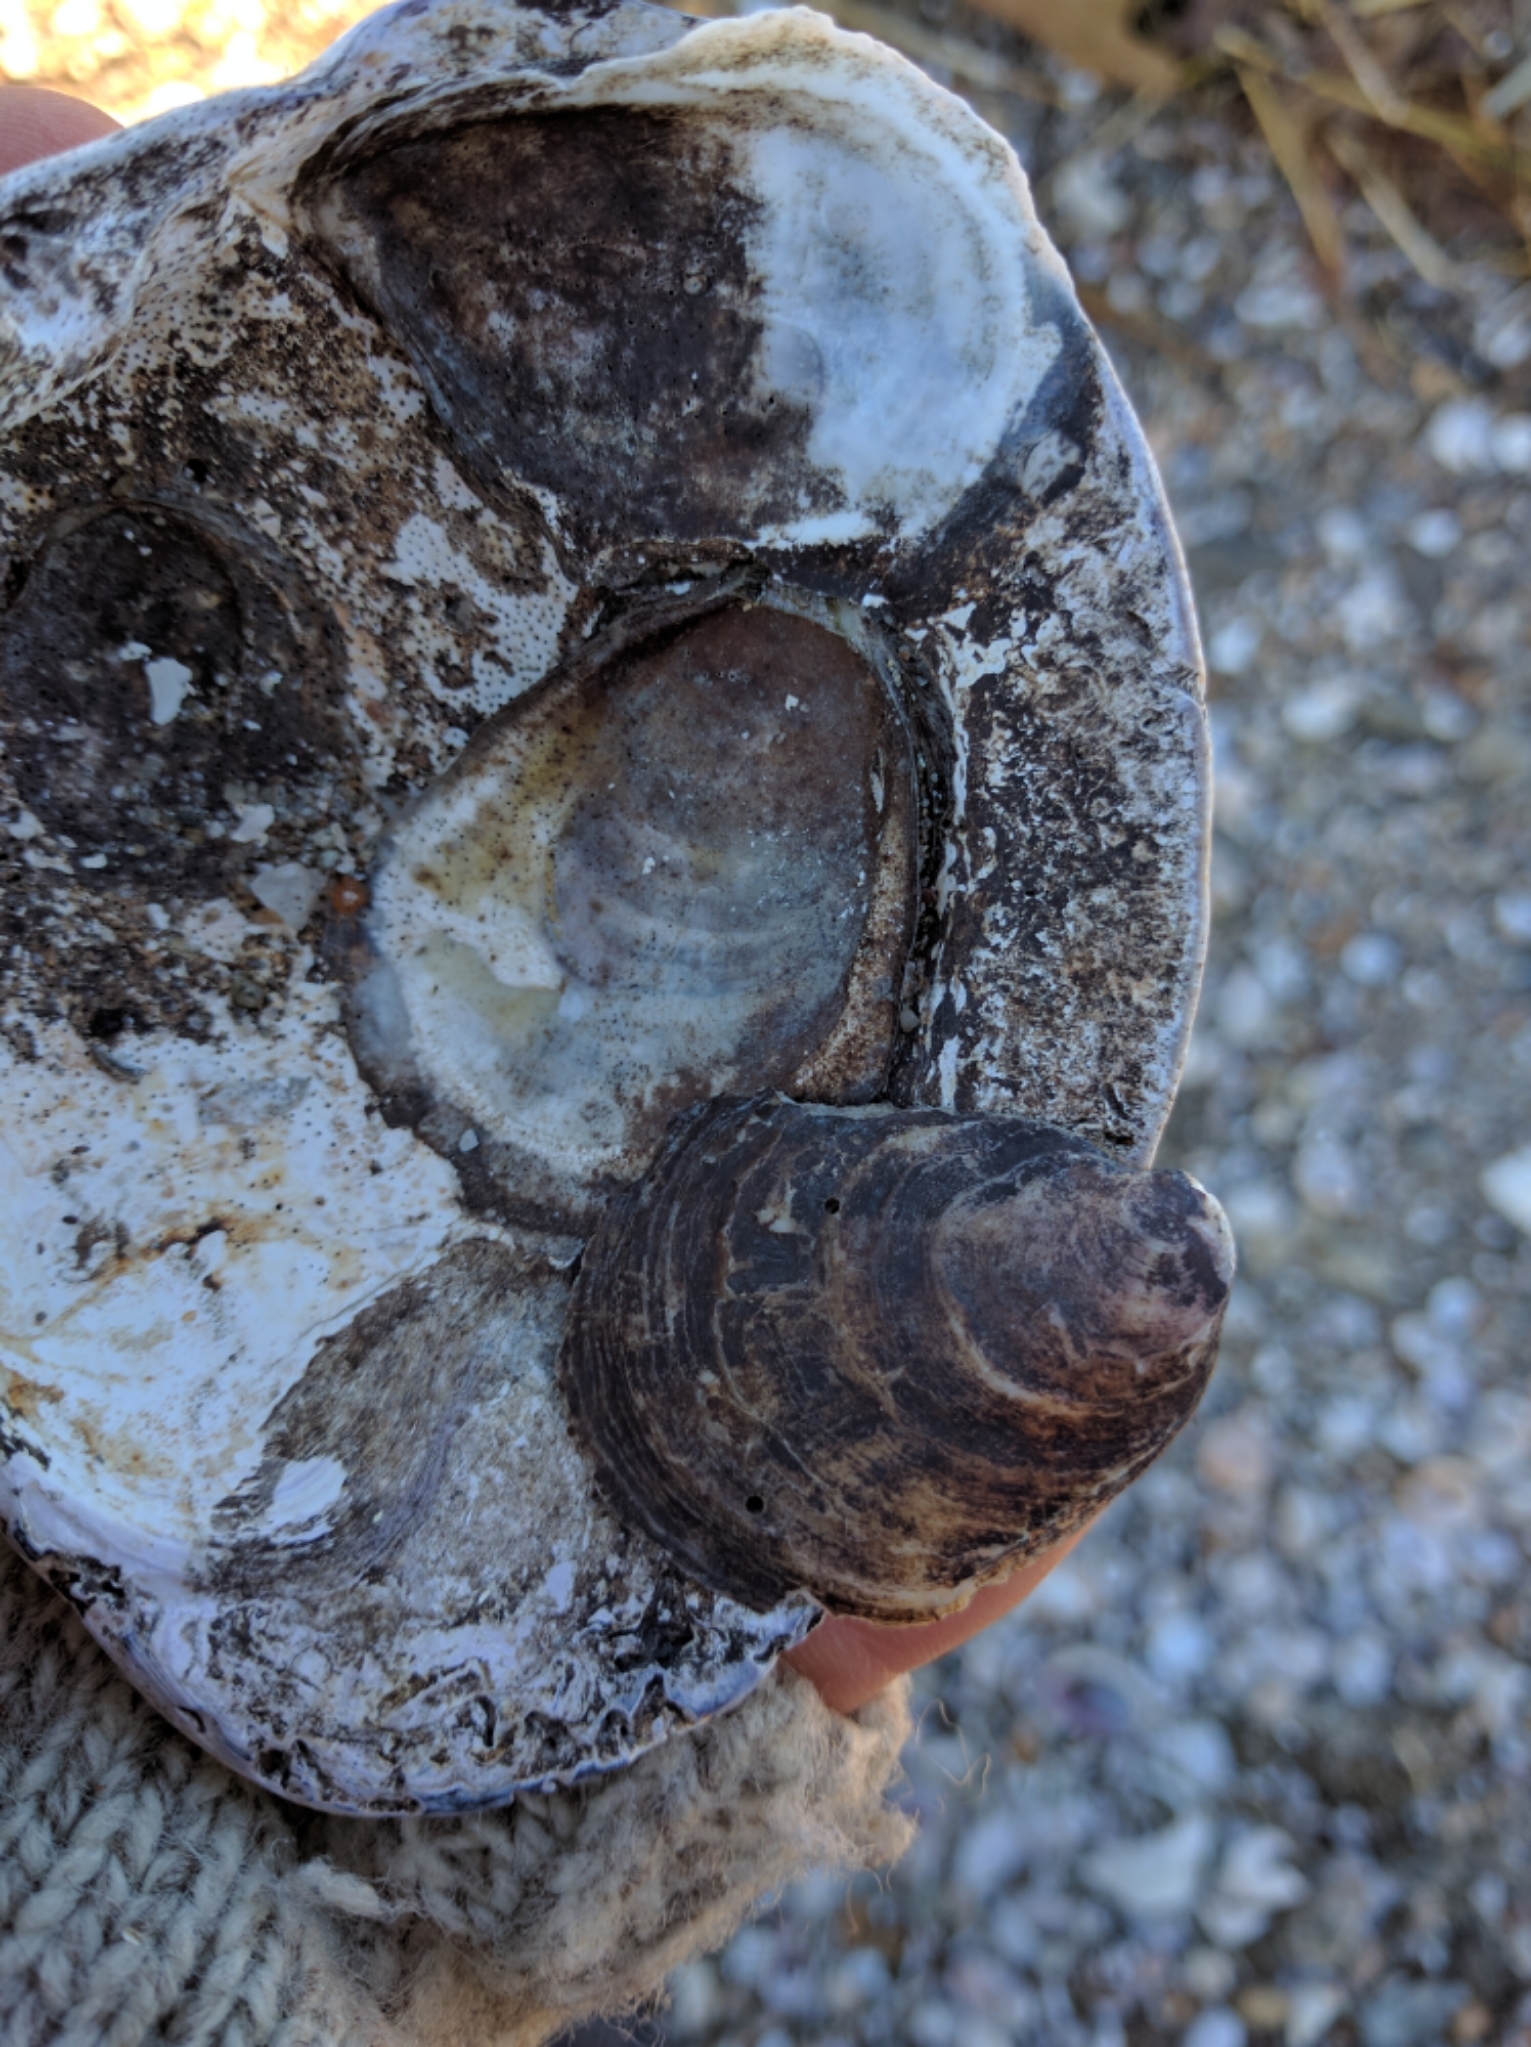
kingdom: Animalia
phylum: Mollusca
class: Bivalvia
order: Ostreida
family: Ostreidae
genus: Crassostrea
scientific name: Crassostrea virginica
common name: American oyster
